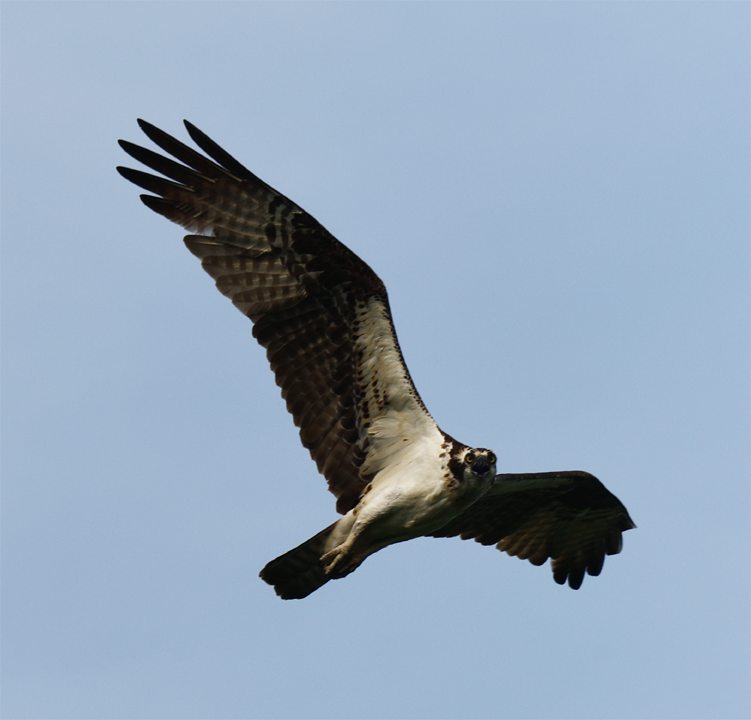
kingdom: Animalia
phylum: Chordata
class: Aves
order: Accipitriformes
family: Pandionidae
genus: Pandion
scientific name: Pandion haliaetus
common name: Osprey
